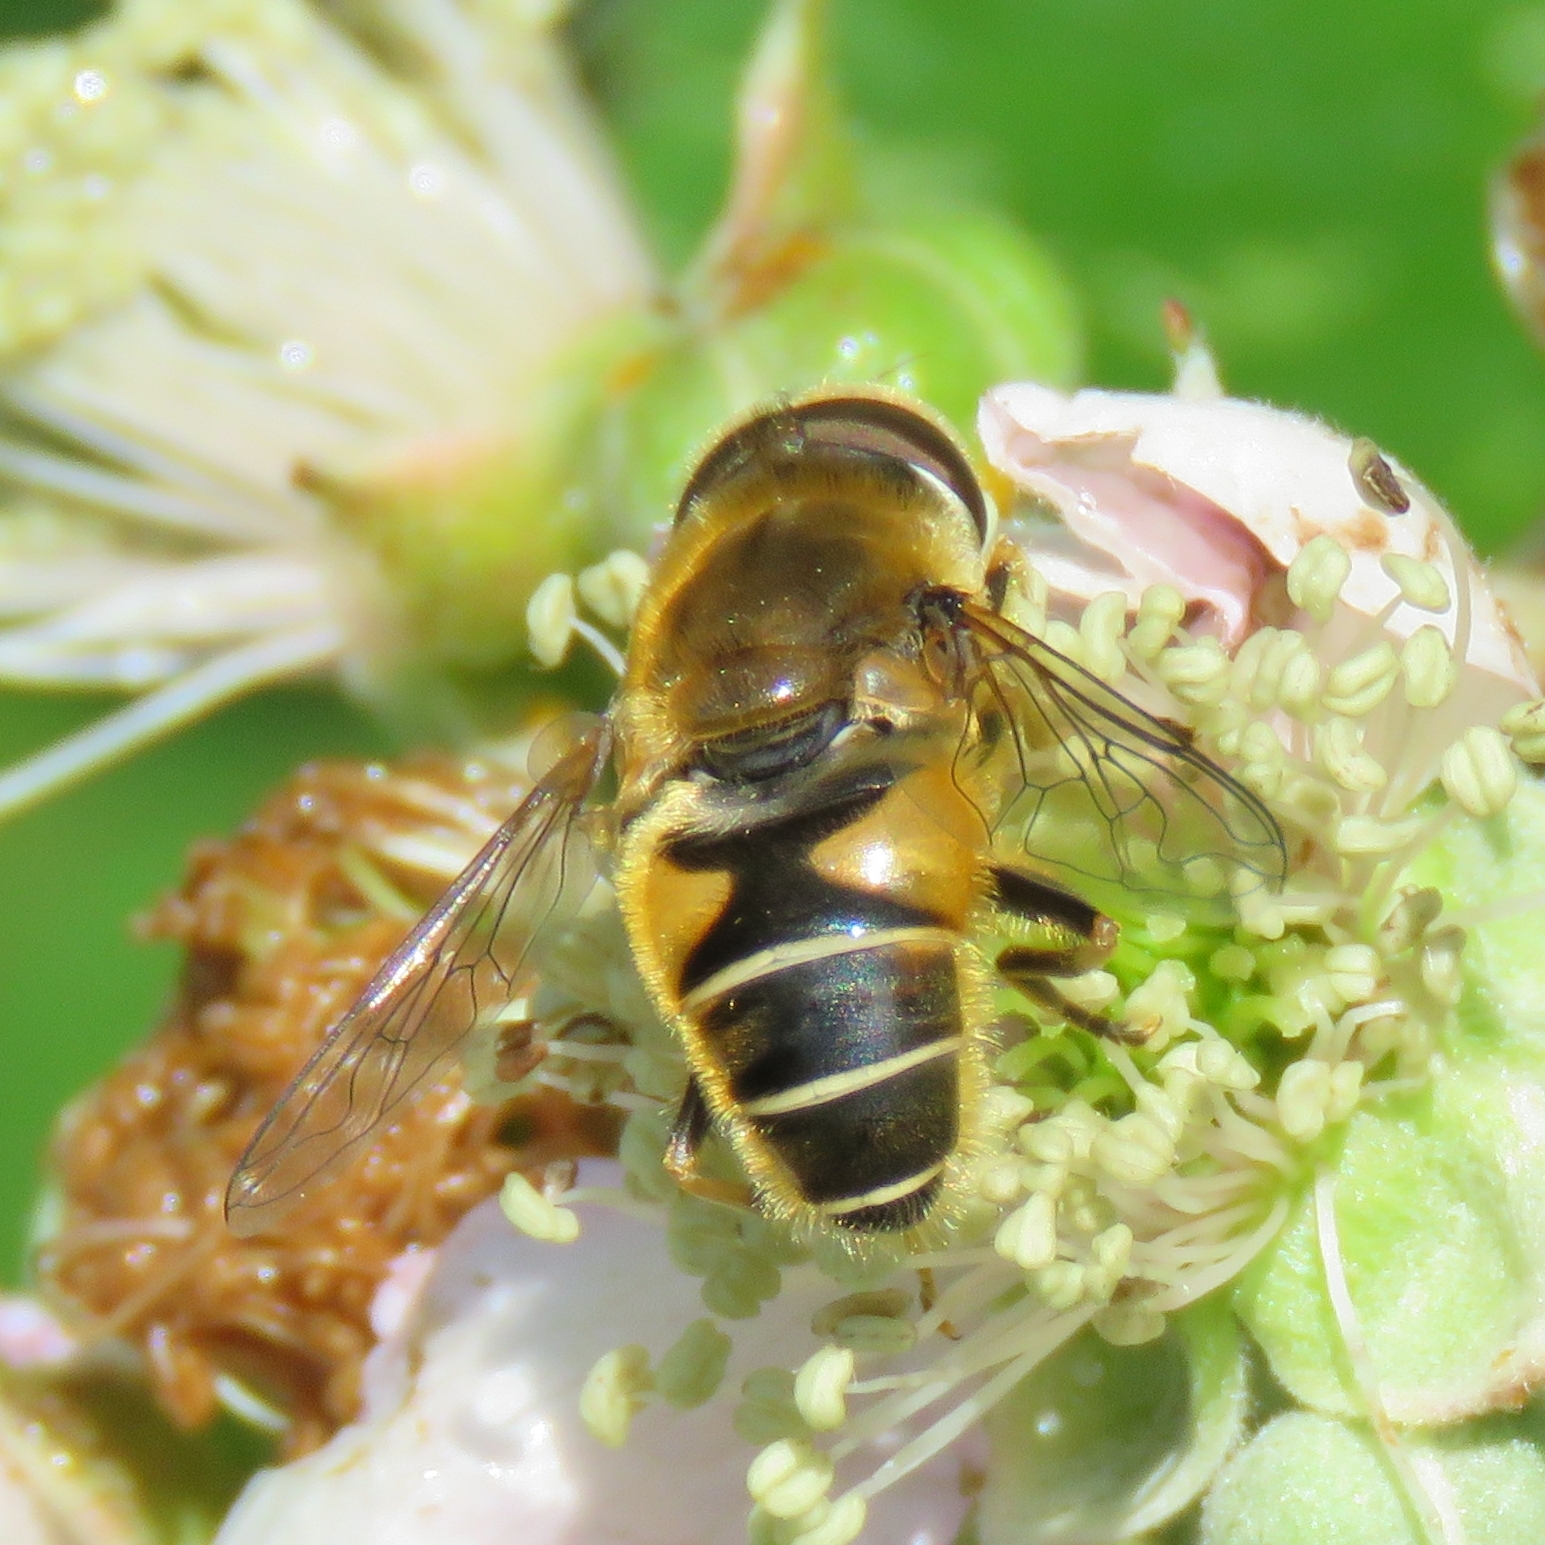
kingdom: Animalia
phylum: Arthropoda
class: Insecta
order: Diptera
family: Syrphidae
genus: Eristalis
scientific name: Eristalis nemorum
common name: Orange-spined drone fly
